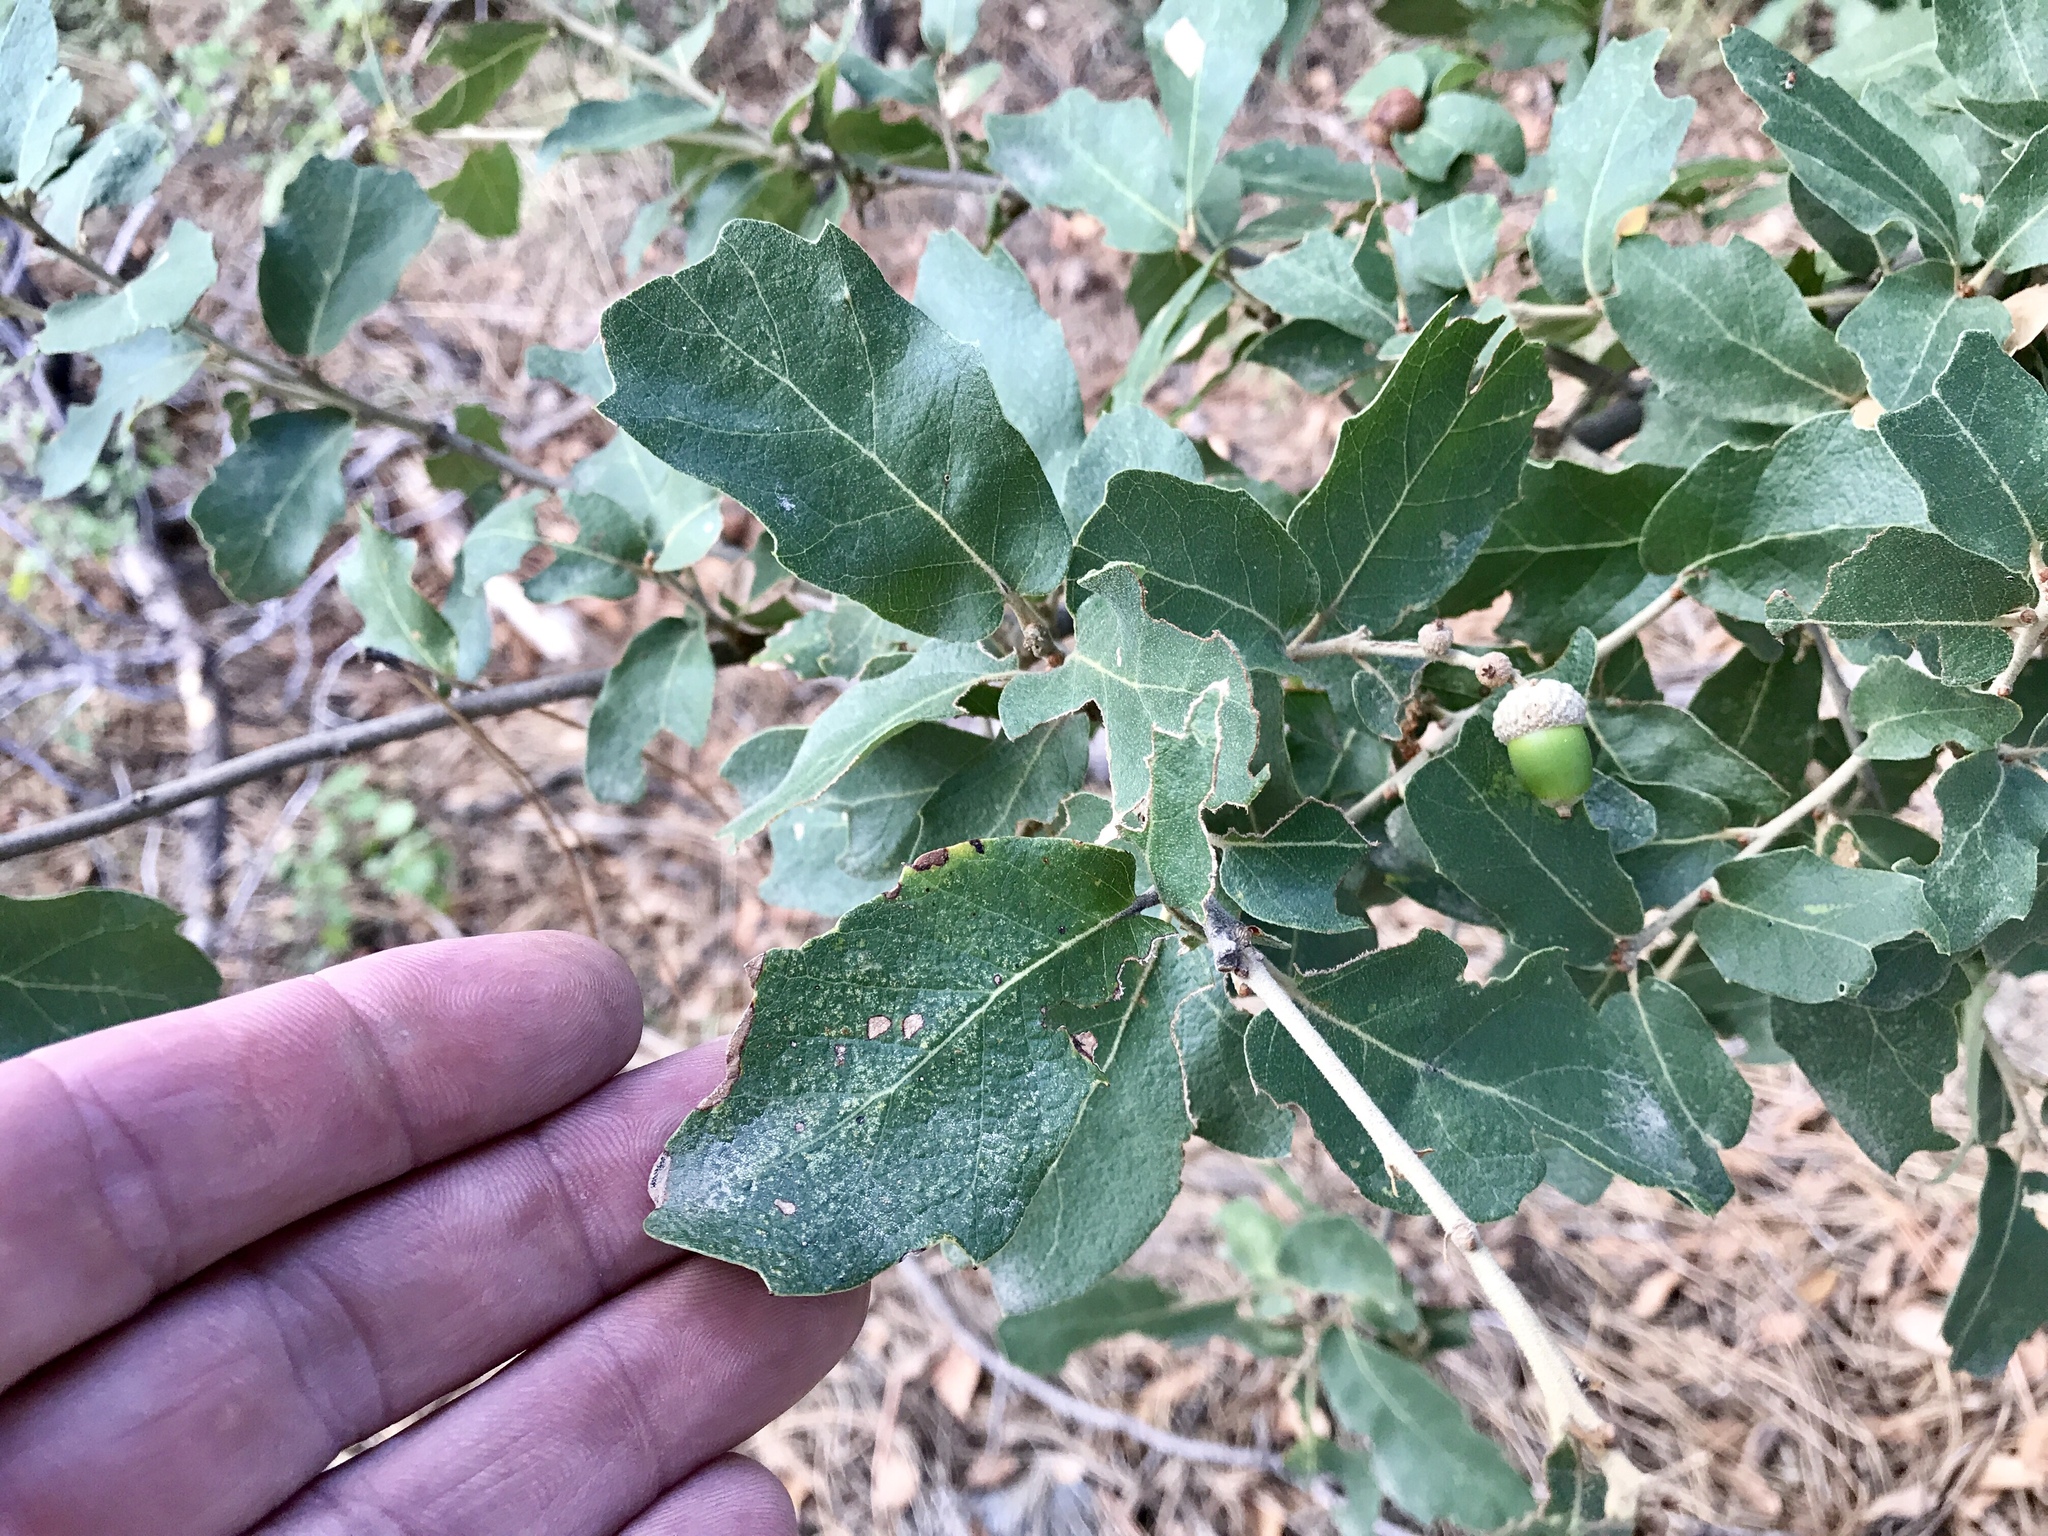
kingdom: Plantae
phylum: Tracheophyta
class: Magnoliopsida
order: Fagales
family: Fagaceae
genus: Quercus
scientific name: Quercus arizonica
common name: Arizona white oak
